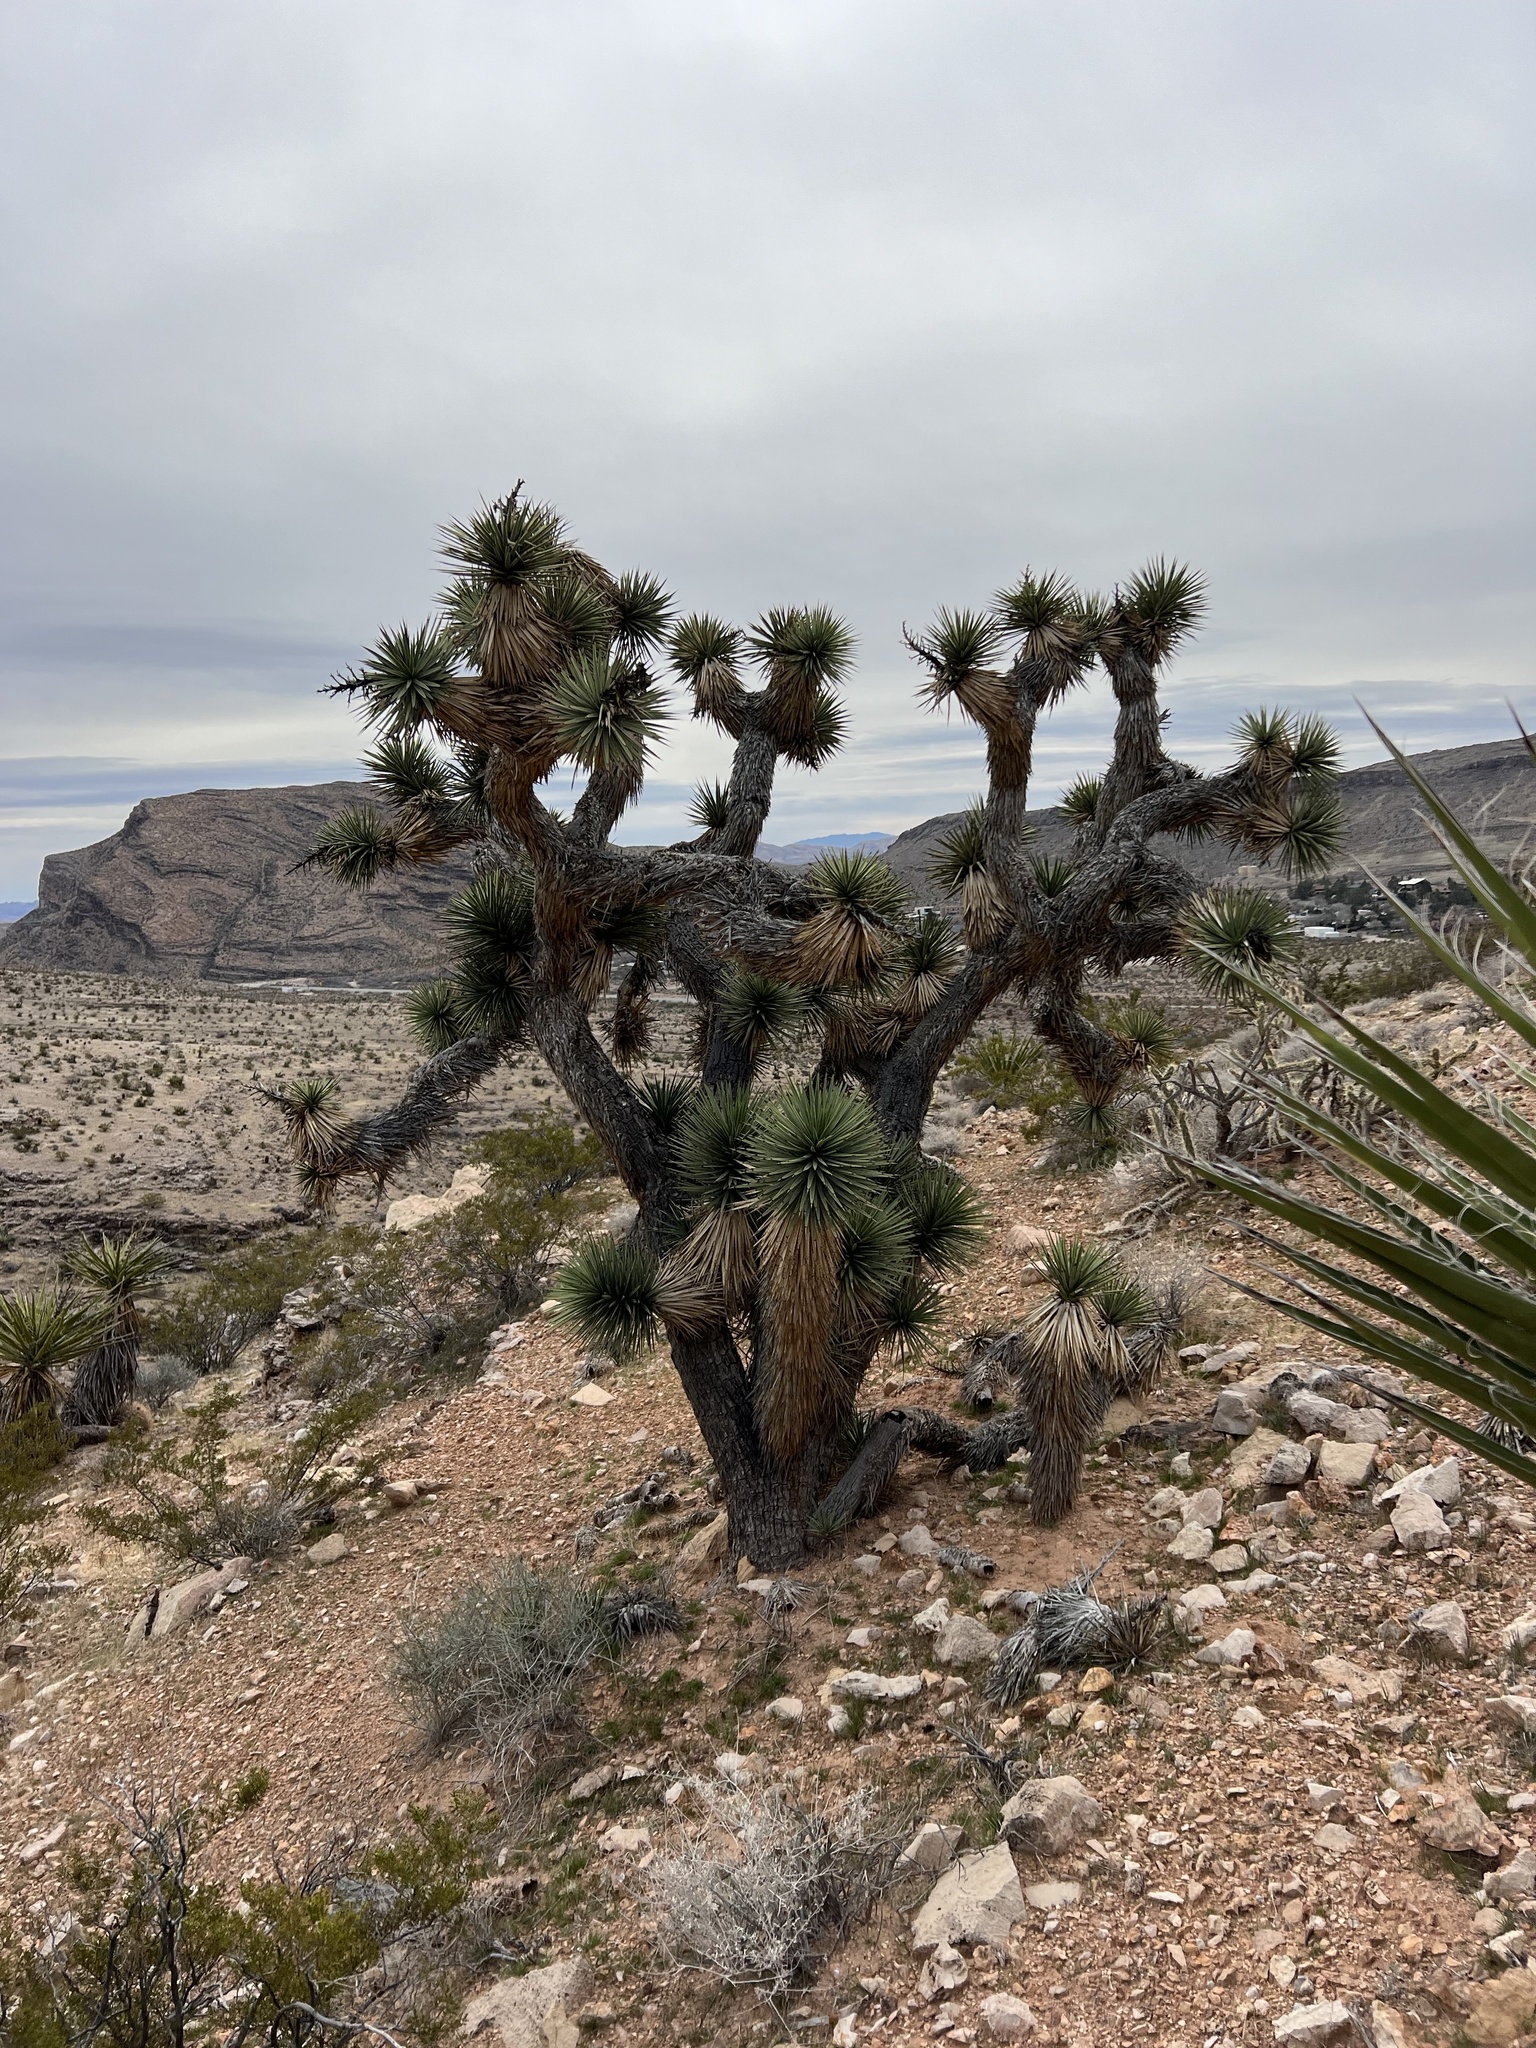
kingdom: Plantae
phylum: Tracheophyta
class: Liliopsida
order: Asparagales
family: Asparagaceae
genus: Yucca
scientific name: Yucca brevifolia
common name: Joshua tree
